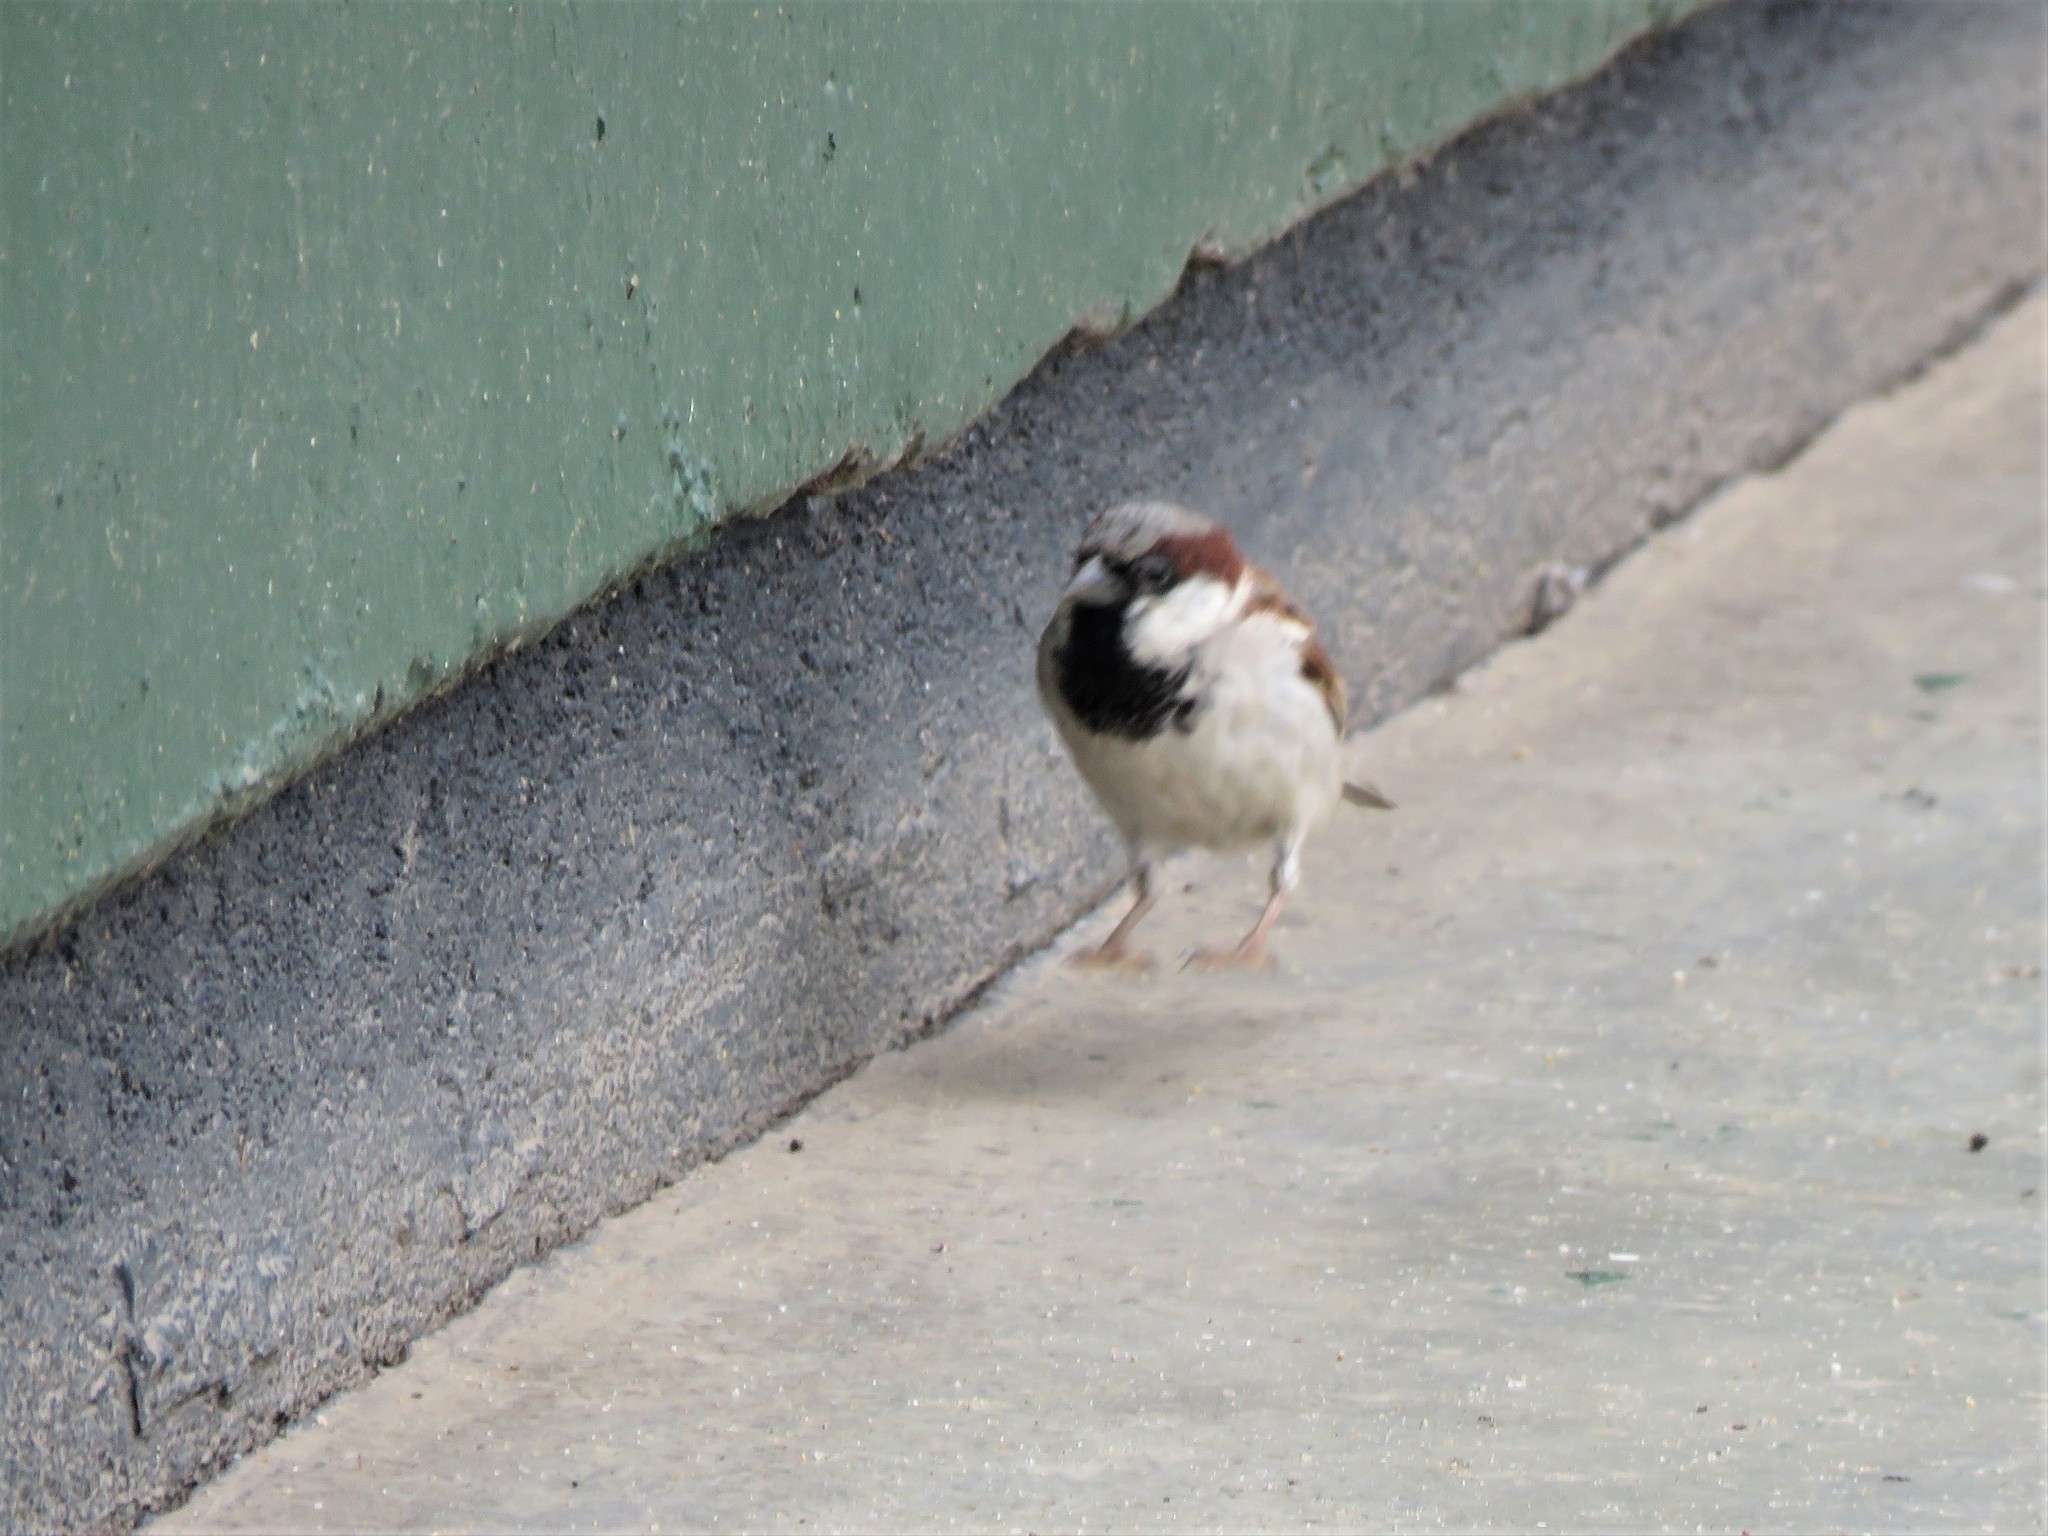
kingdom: Animalia
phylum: Chordata
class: Aves
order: Passeriformes
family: Passeridae
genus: Passer
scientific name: Passer domesticus
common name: House sparrow
